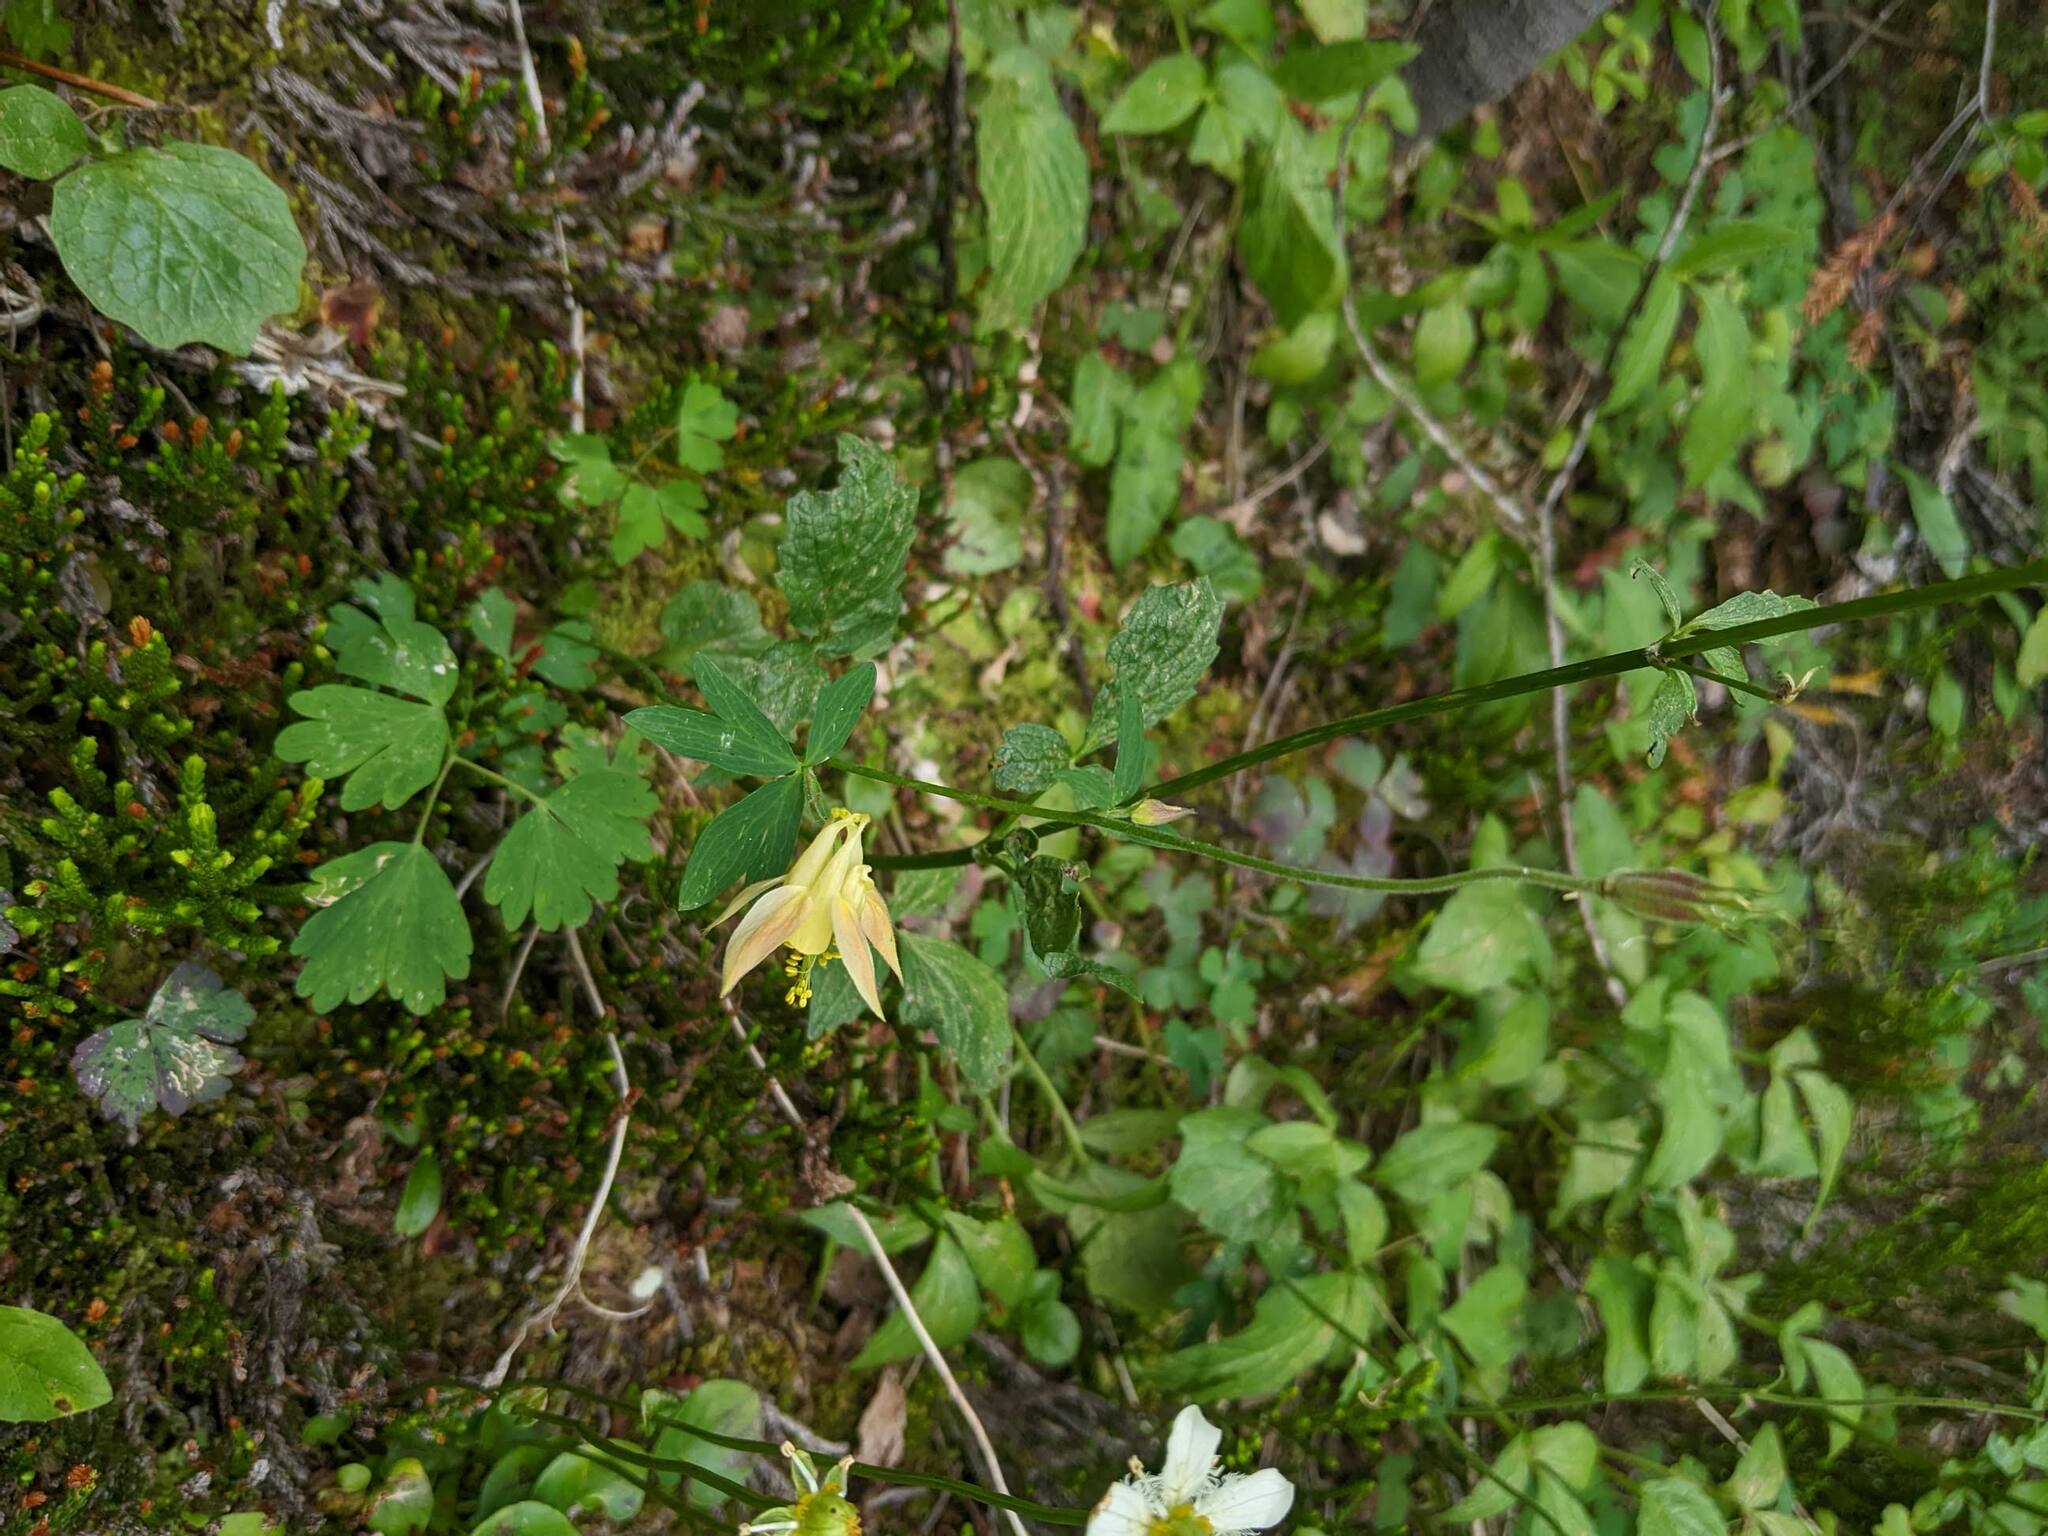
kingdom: Plantae
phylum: Tracheophyta
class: Magnoliopsida
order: Ranunculales
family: Ranunculaceae
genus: Aquilegia
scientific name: Aquilegia flavescens
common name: Yellow columbine
